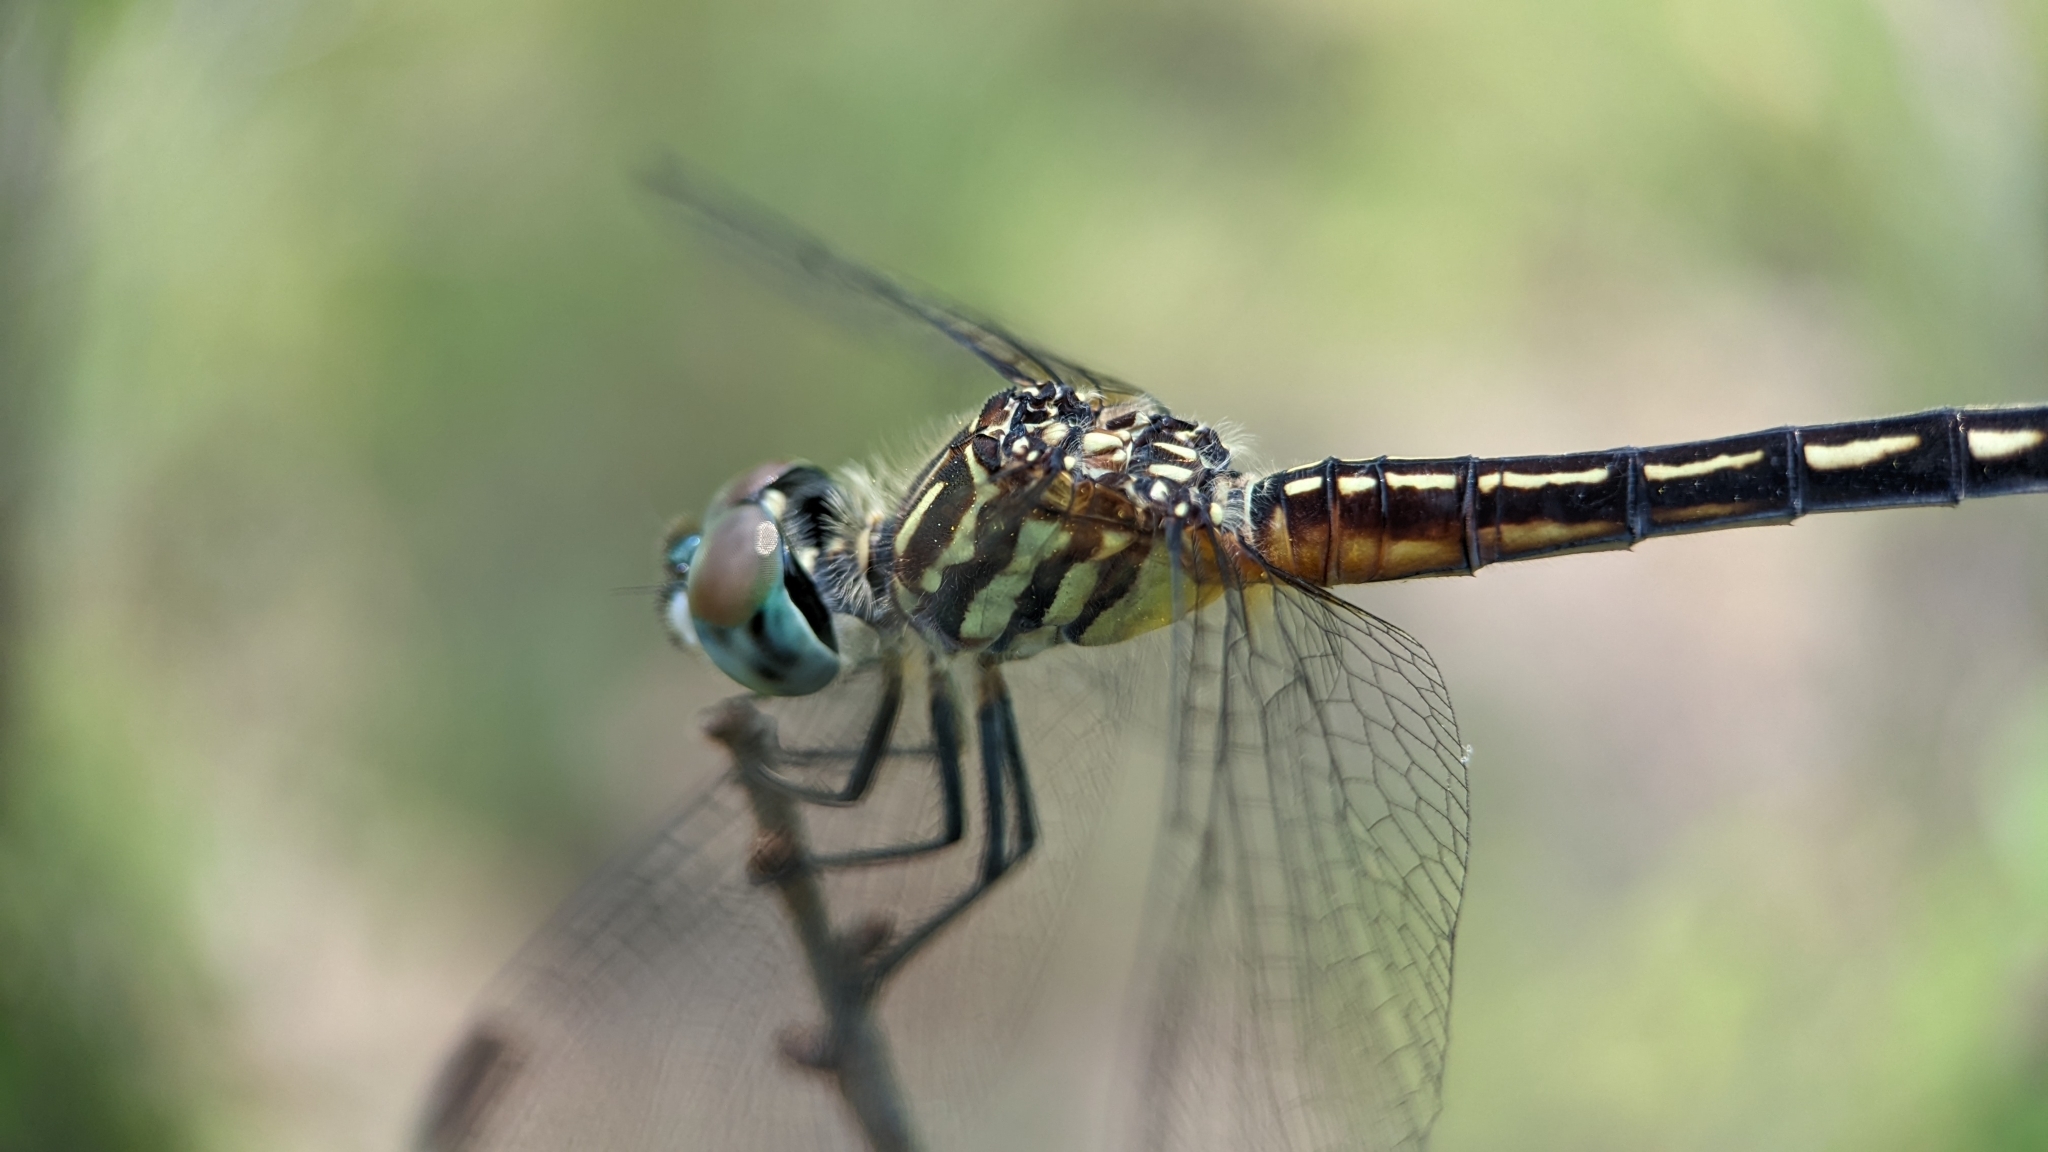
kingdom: Animalia
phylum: Arthropoda
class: Insecta
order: Odonata
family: Libellulidae
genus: Pachydiplax
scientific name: Pachydiplax longipennis
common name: Blue dasher
